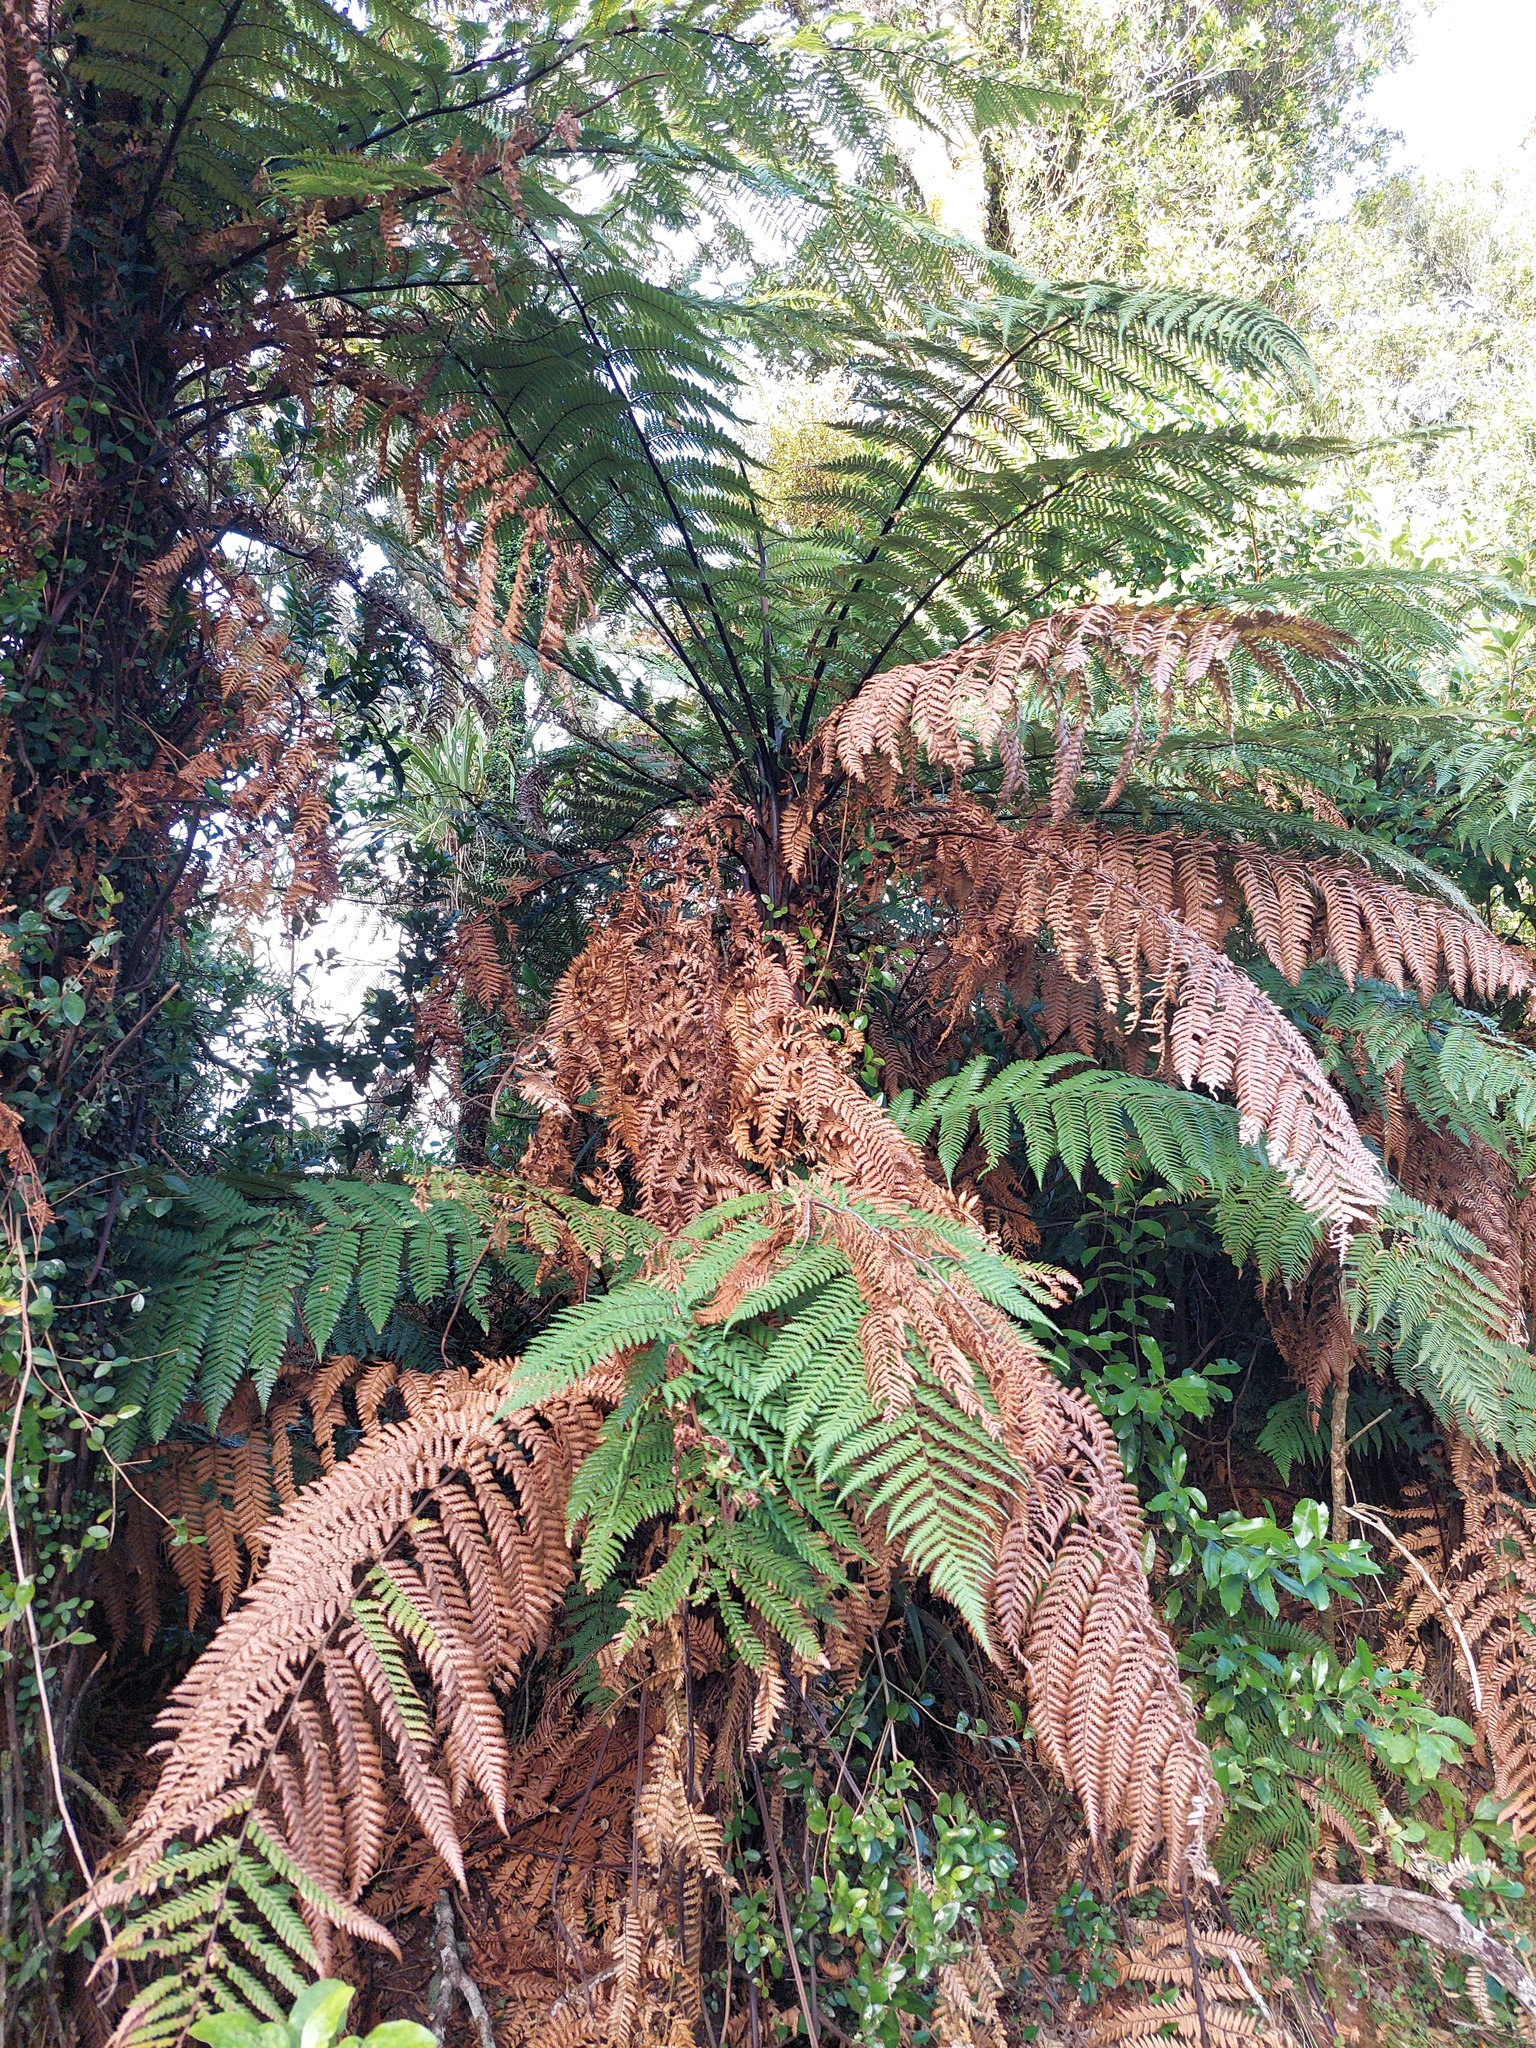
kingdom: Plantae
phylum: Tracheophyta
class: Polypodiopsida
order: Cyatheales
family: Dicksoniaceae
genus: Dicksonia
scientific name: Dicksonia squarrosa
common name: Hard treefern
